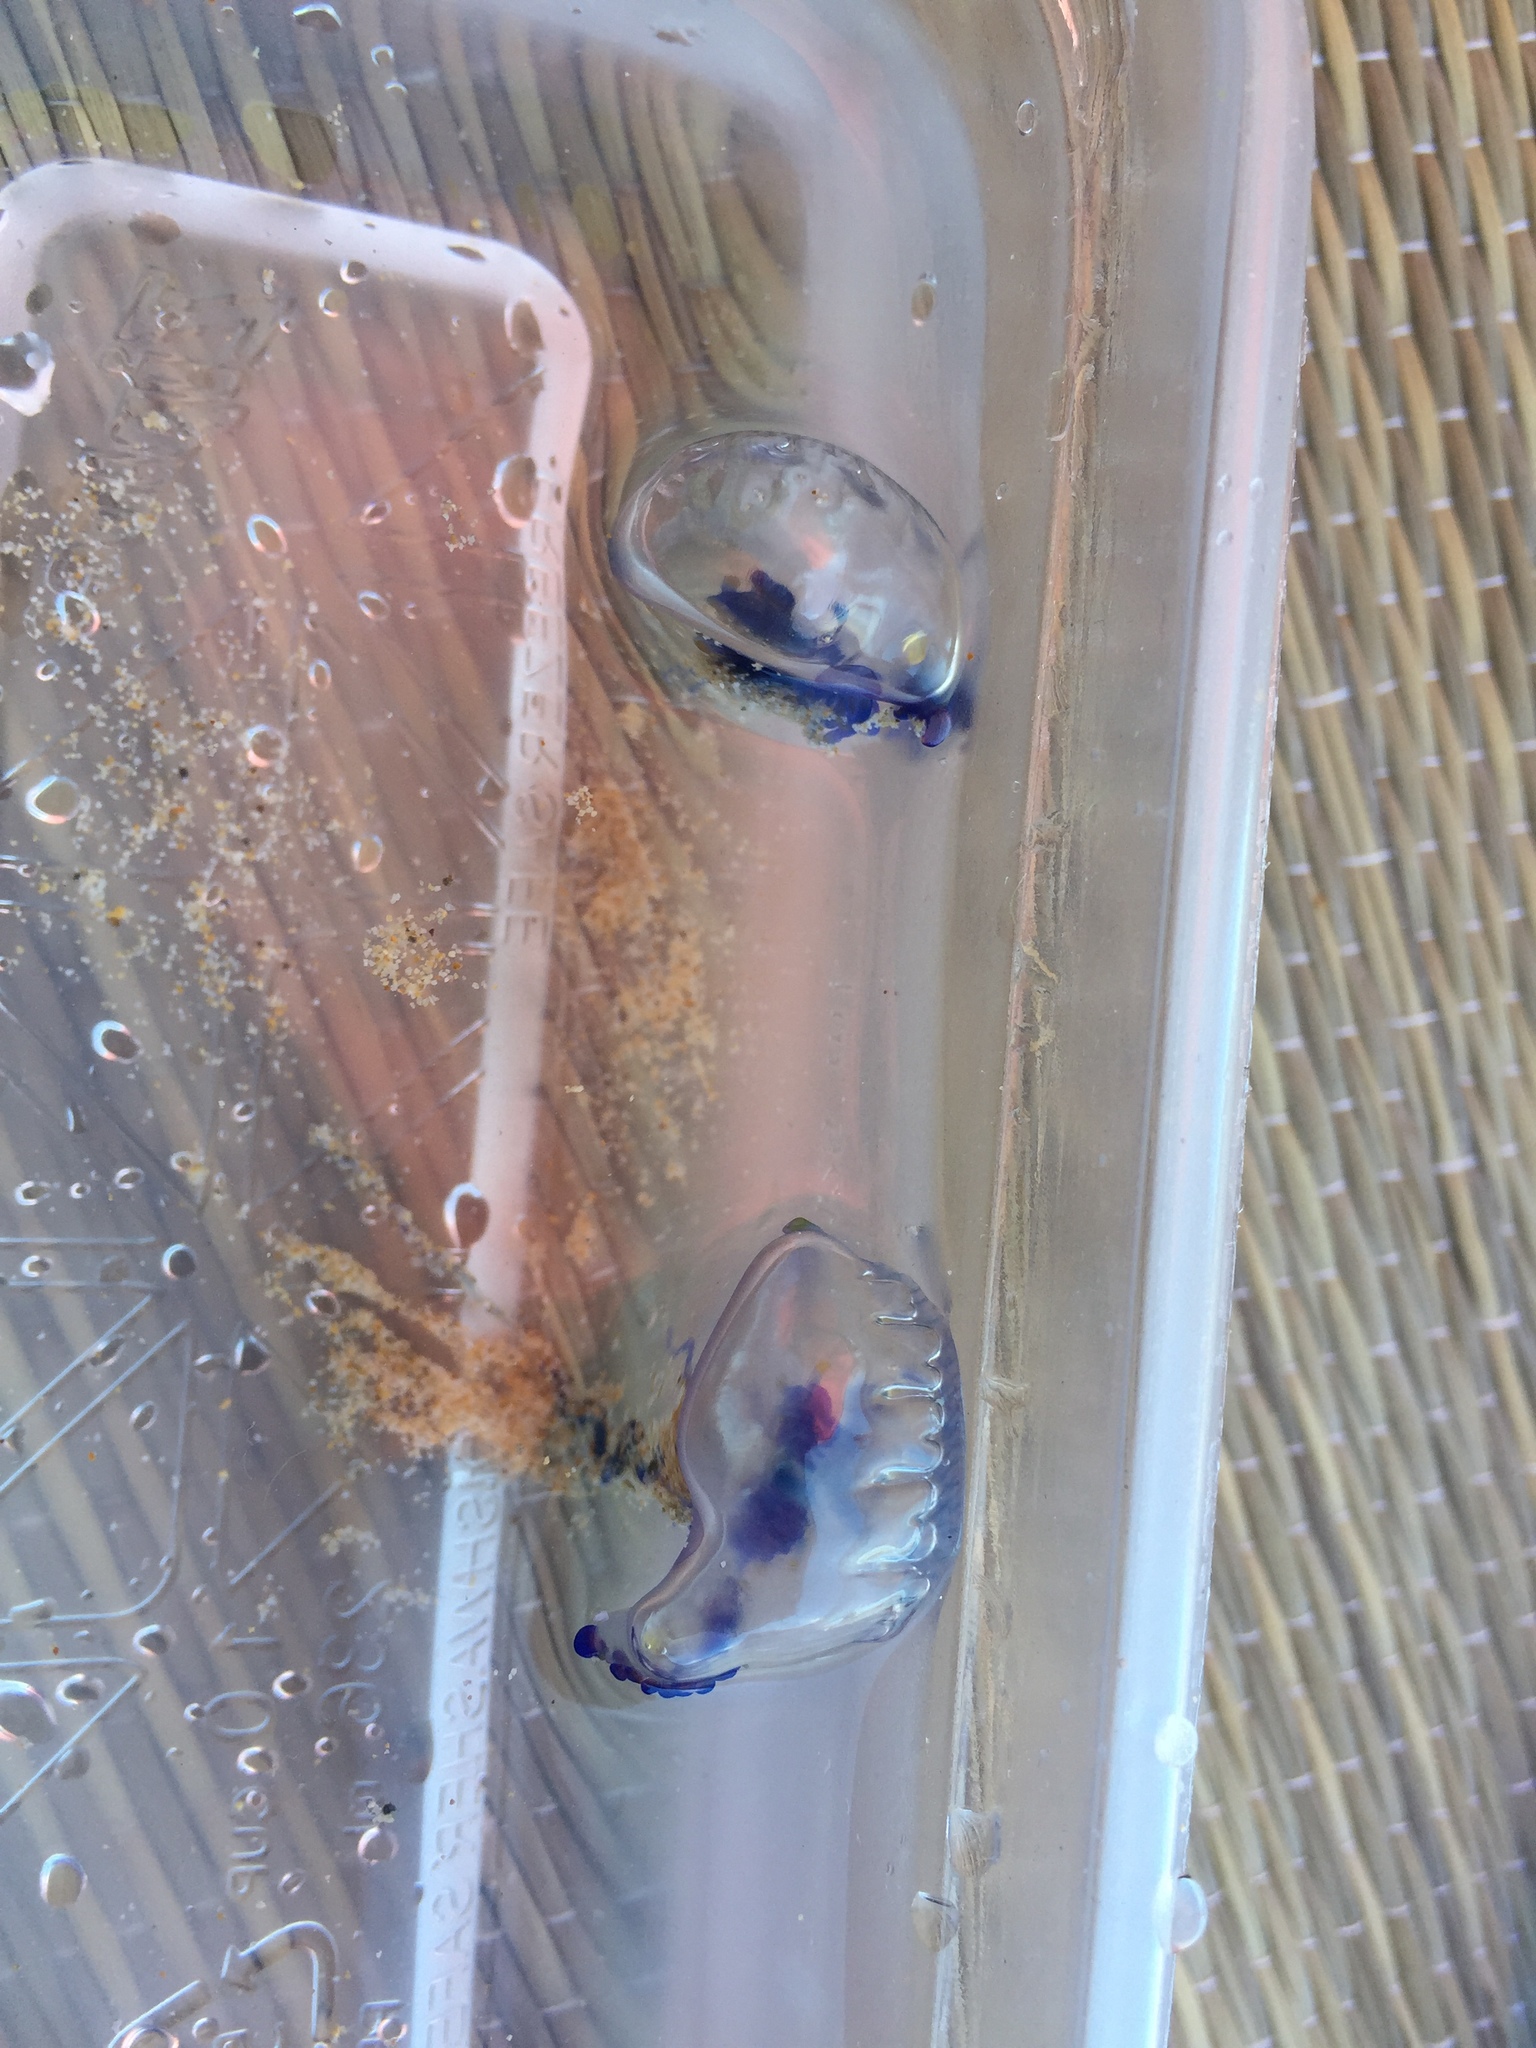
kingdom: Animalia
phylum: Cnidaria
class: Hydrozoa
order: Siphonophorae
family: Physaliidae
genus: Physalia
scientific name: Physalia physalis
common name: Portuguese man-of-war
